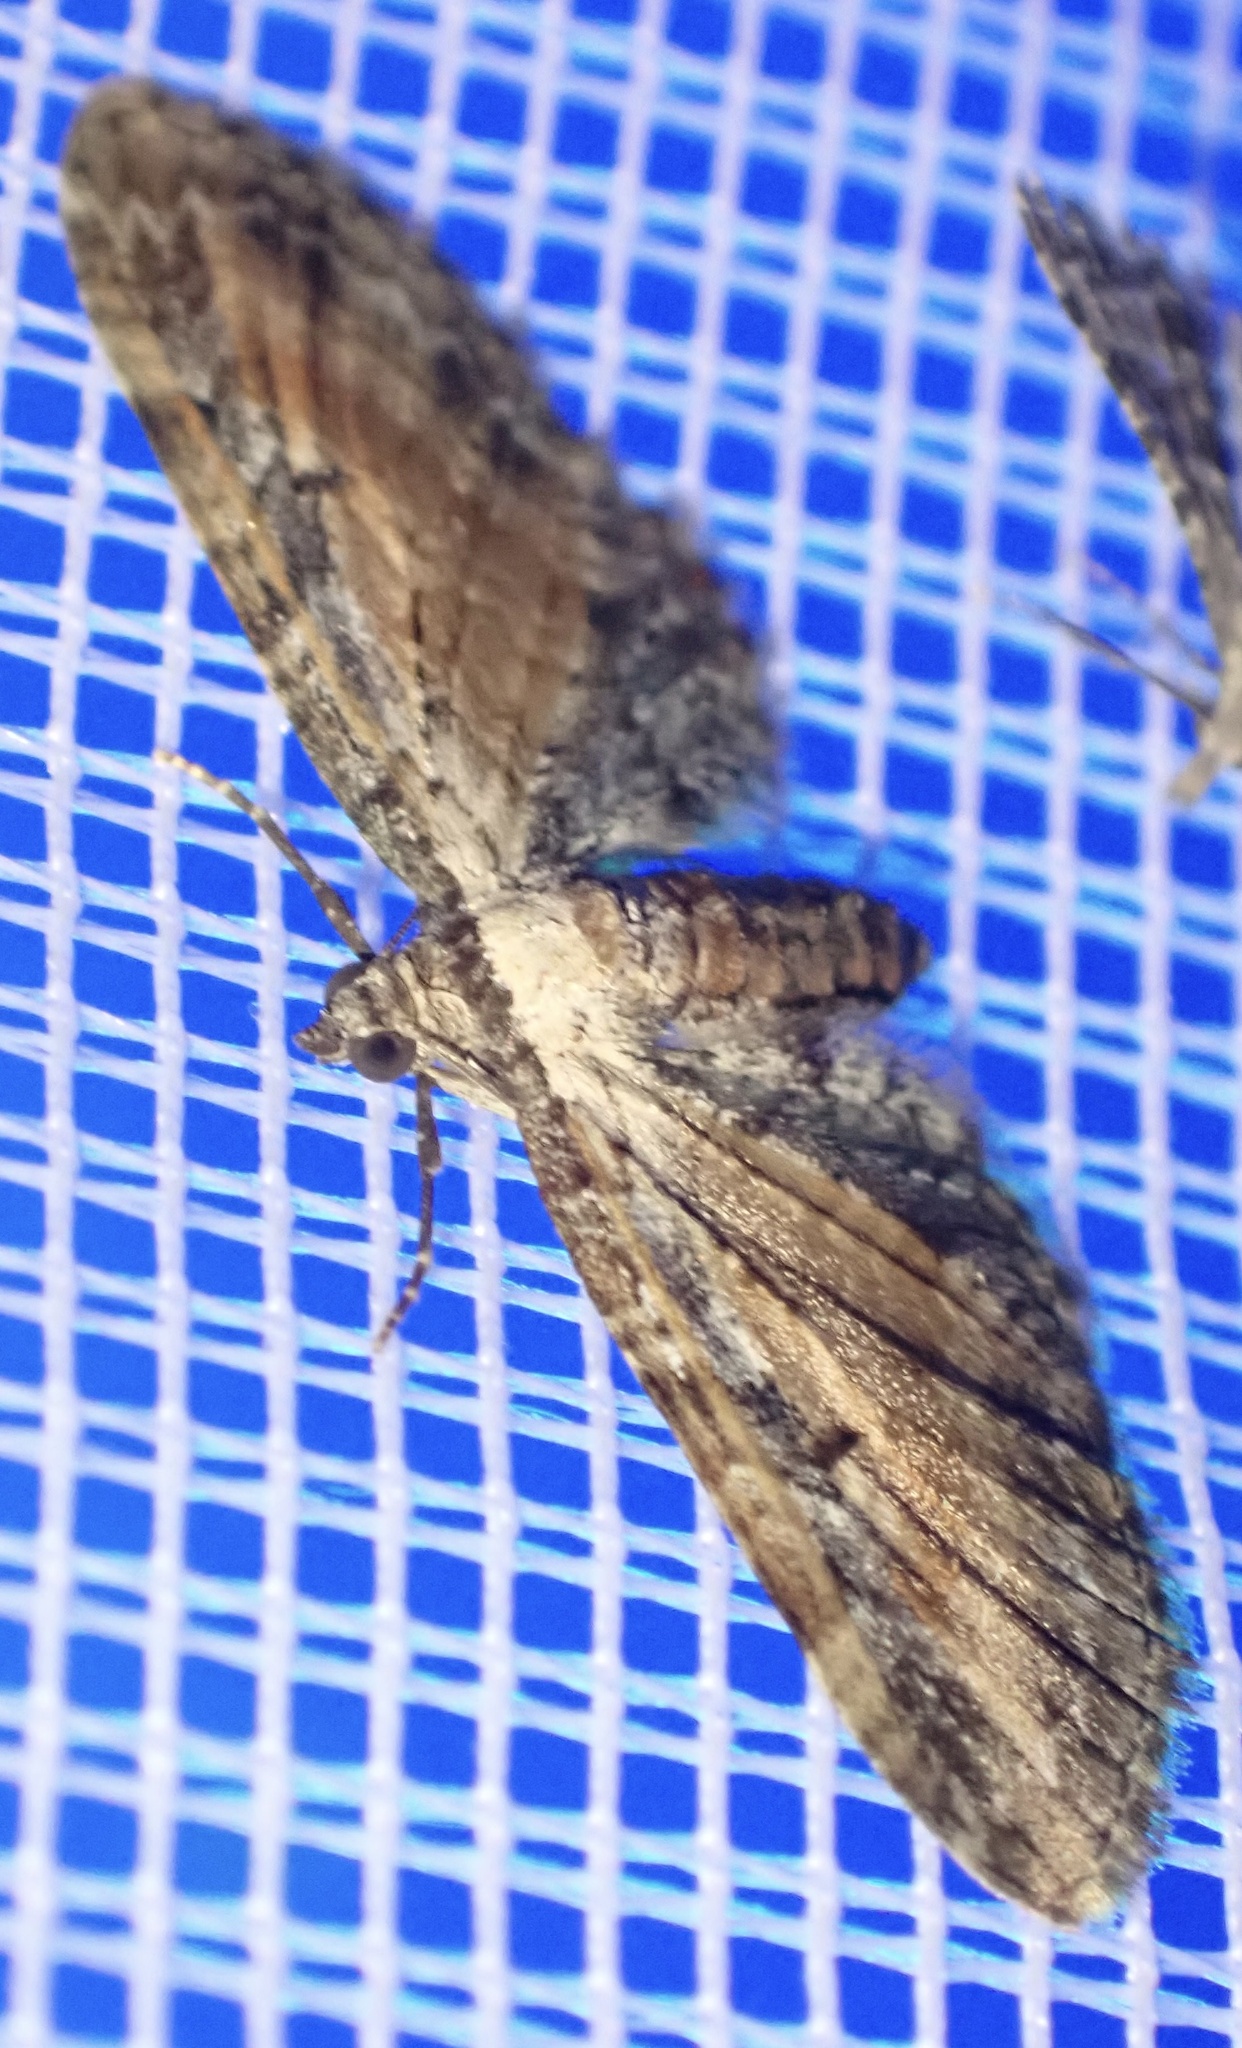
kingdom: Animalia
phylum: Arthropoda
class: Insecta
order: Lepidoptera
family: Geometridae
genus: Eupithecia
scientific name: Eupithecia icterata
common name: Tawny speckled pug
